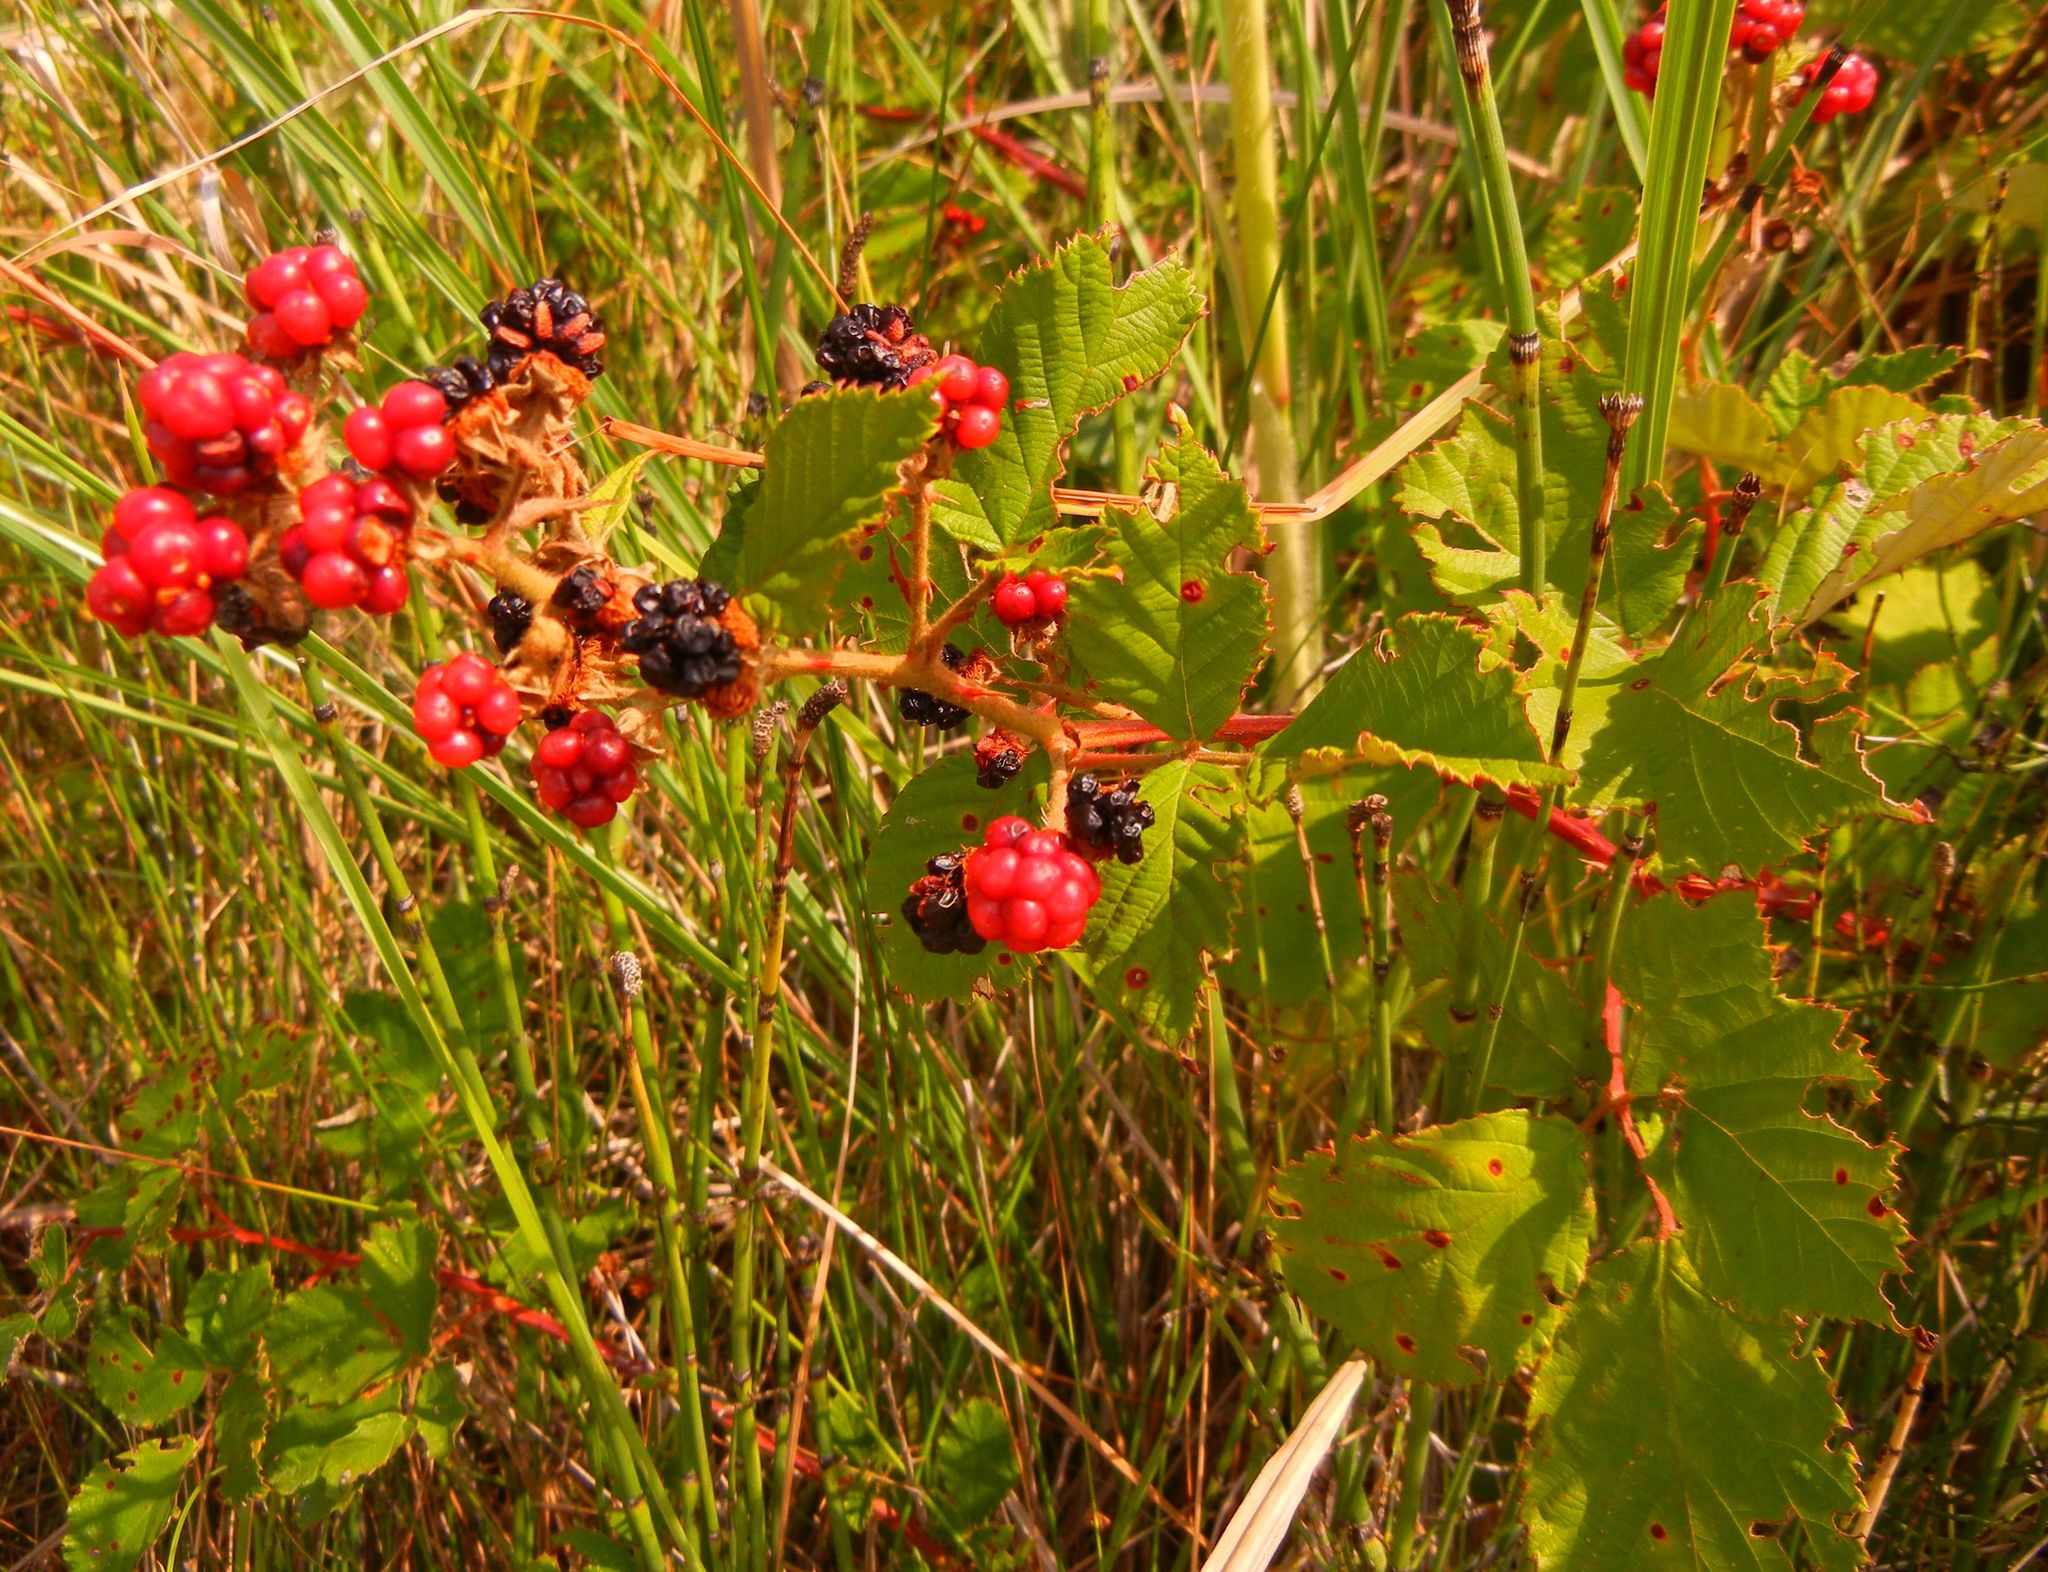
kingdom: Plantae
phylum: Tracheophyta
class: Magnoliopsida
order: Rosales
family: Rosaceae
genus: Rubus
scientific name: Rubus sanctus
